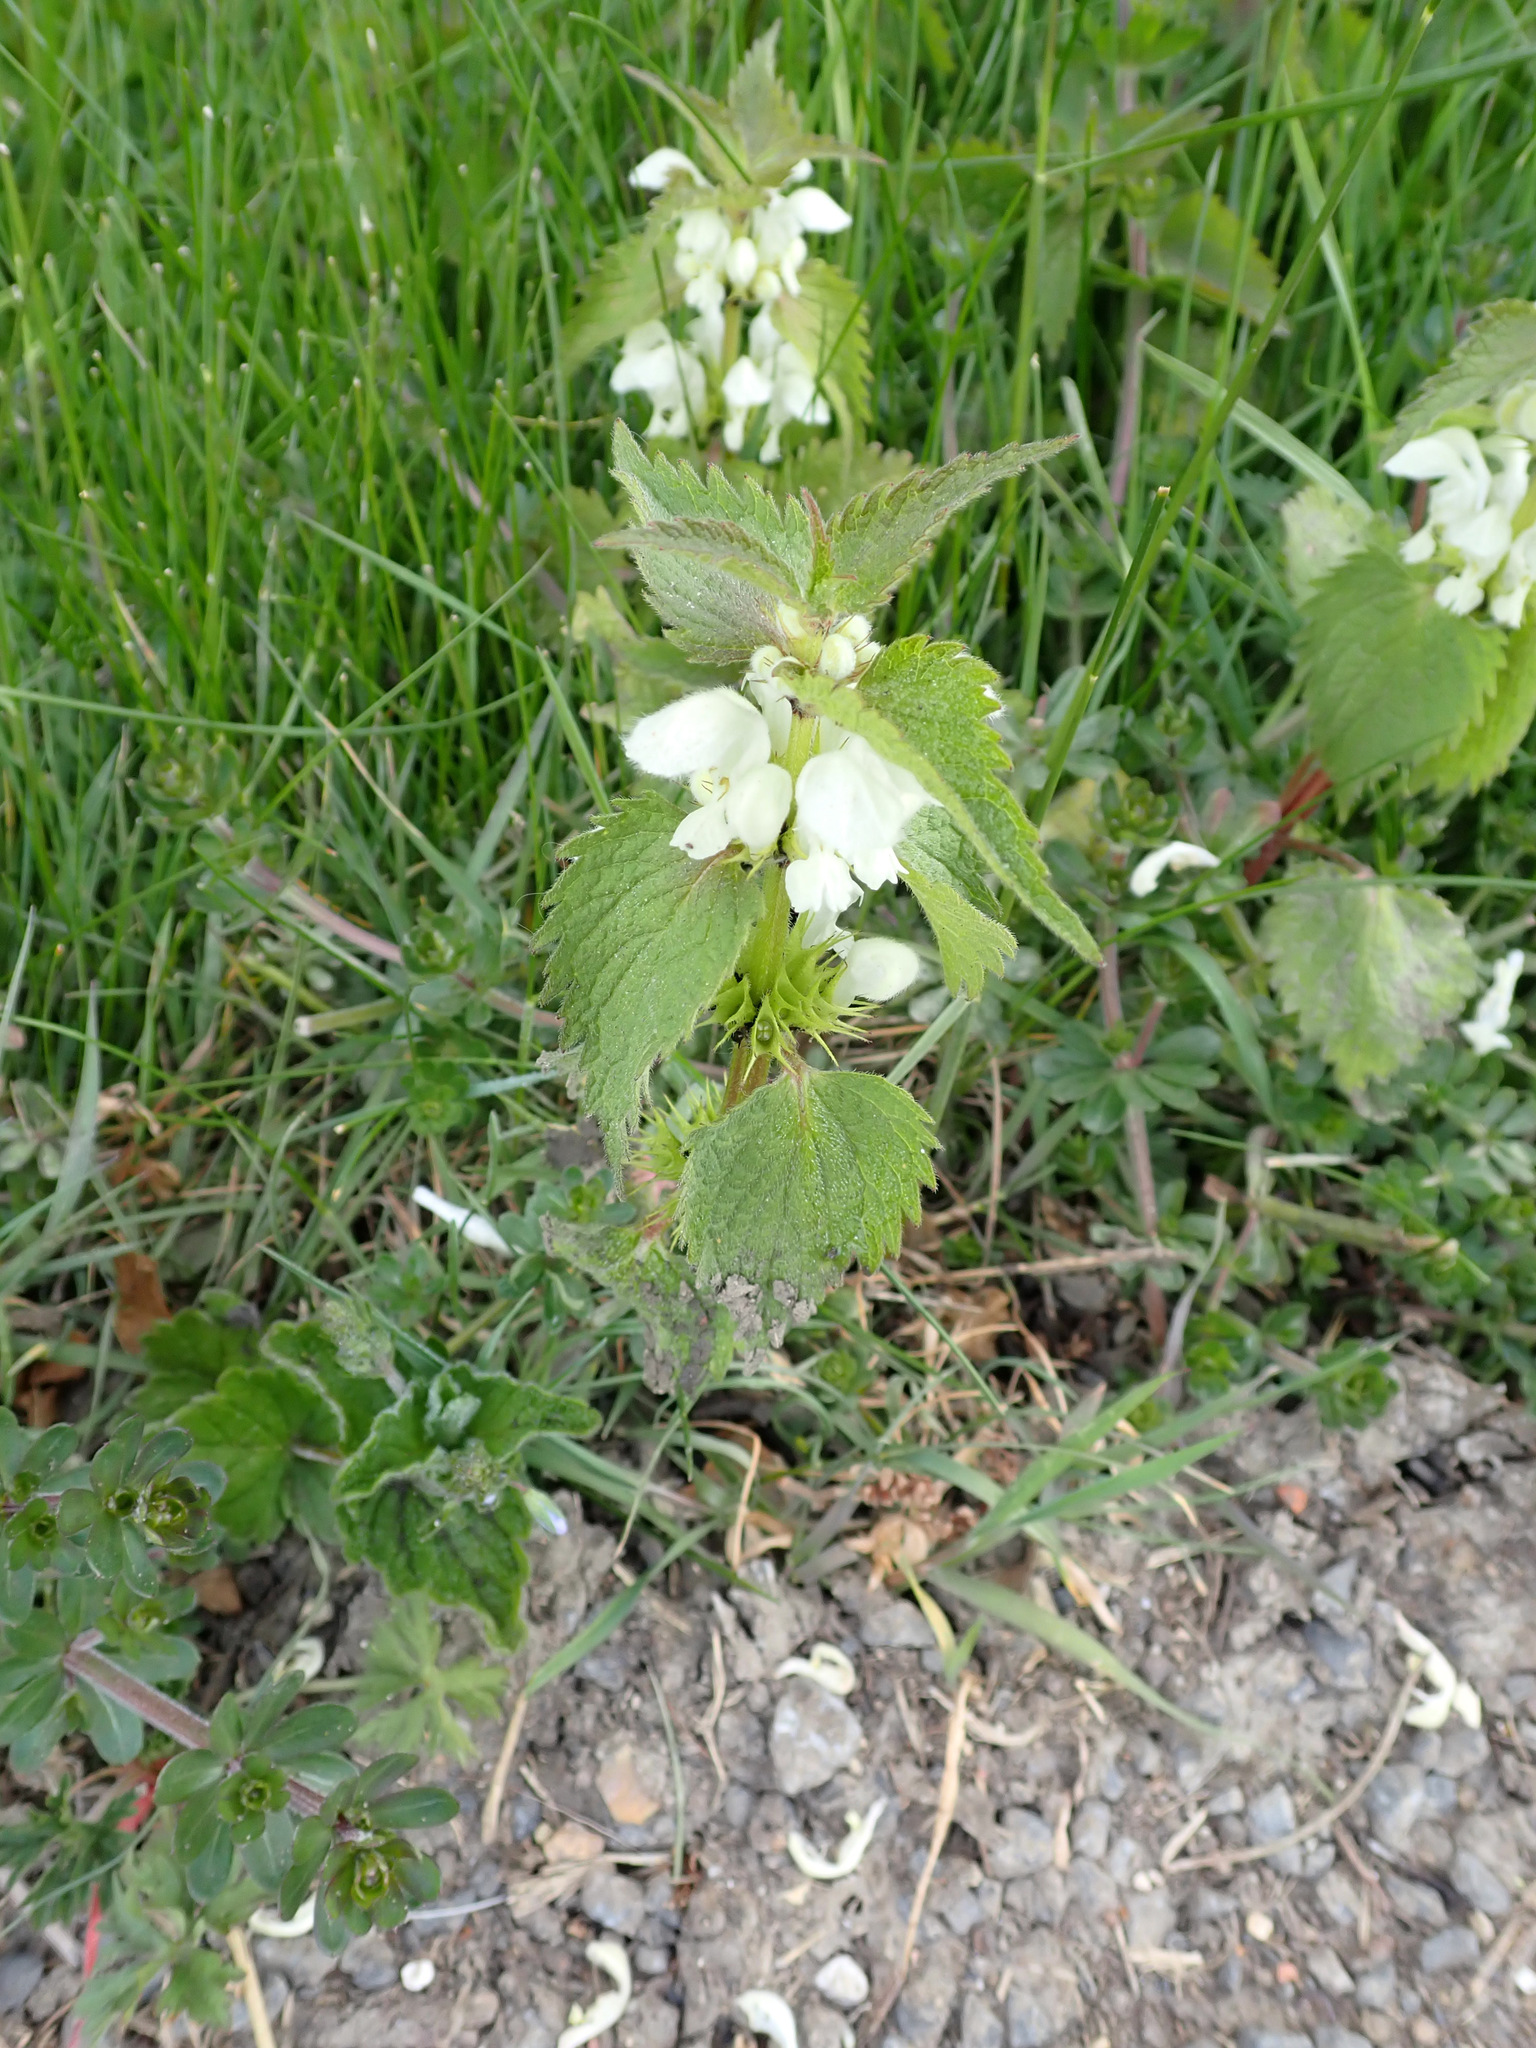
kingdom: Plantae
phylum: Tracheophyta
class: Magnoliopsida
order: Lamiales
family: Lamiaceae
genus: Lamium
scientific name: Lamium album
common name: White dead-nettle
